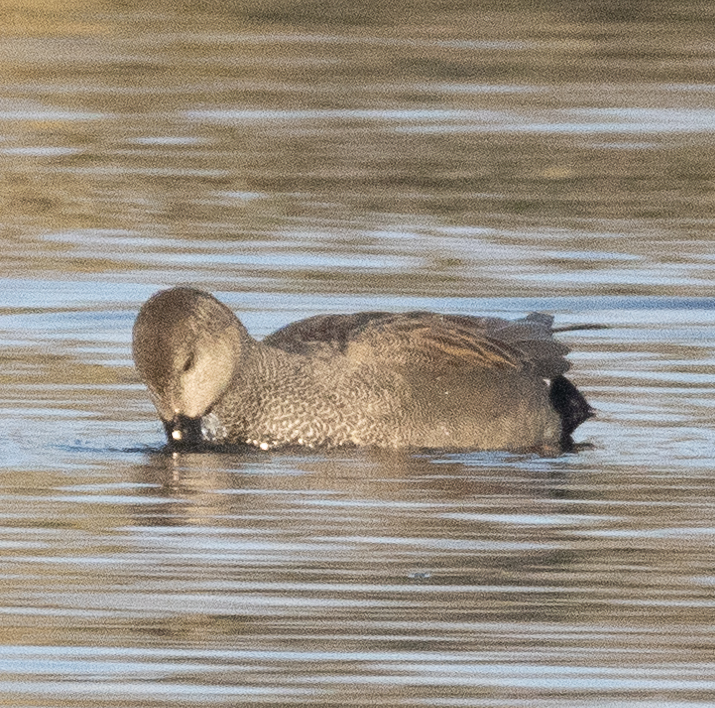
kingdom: Animalia
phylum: Chordata
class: Aves
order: Anseriformes
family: Anatidae
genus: Mareca
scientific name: Mareca strepera
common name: Gadwall
